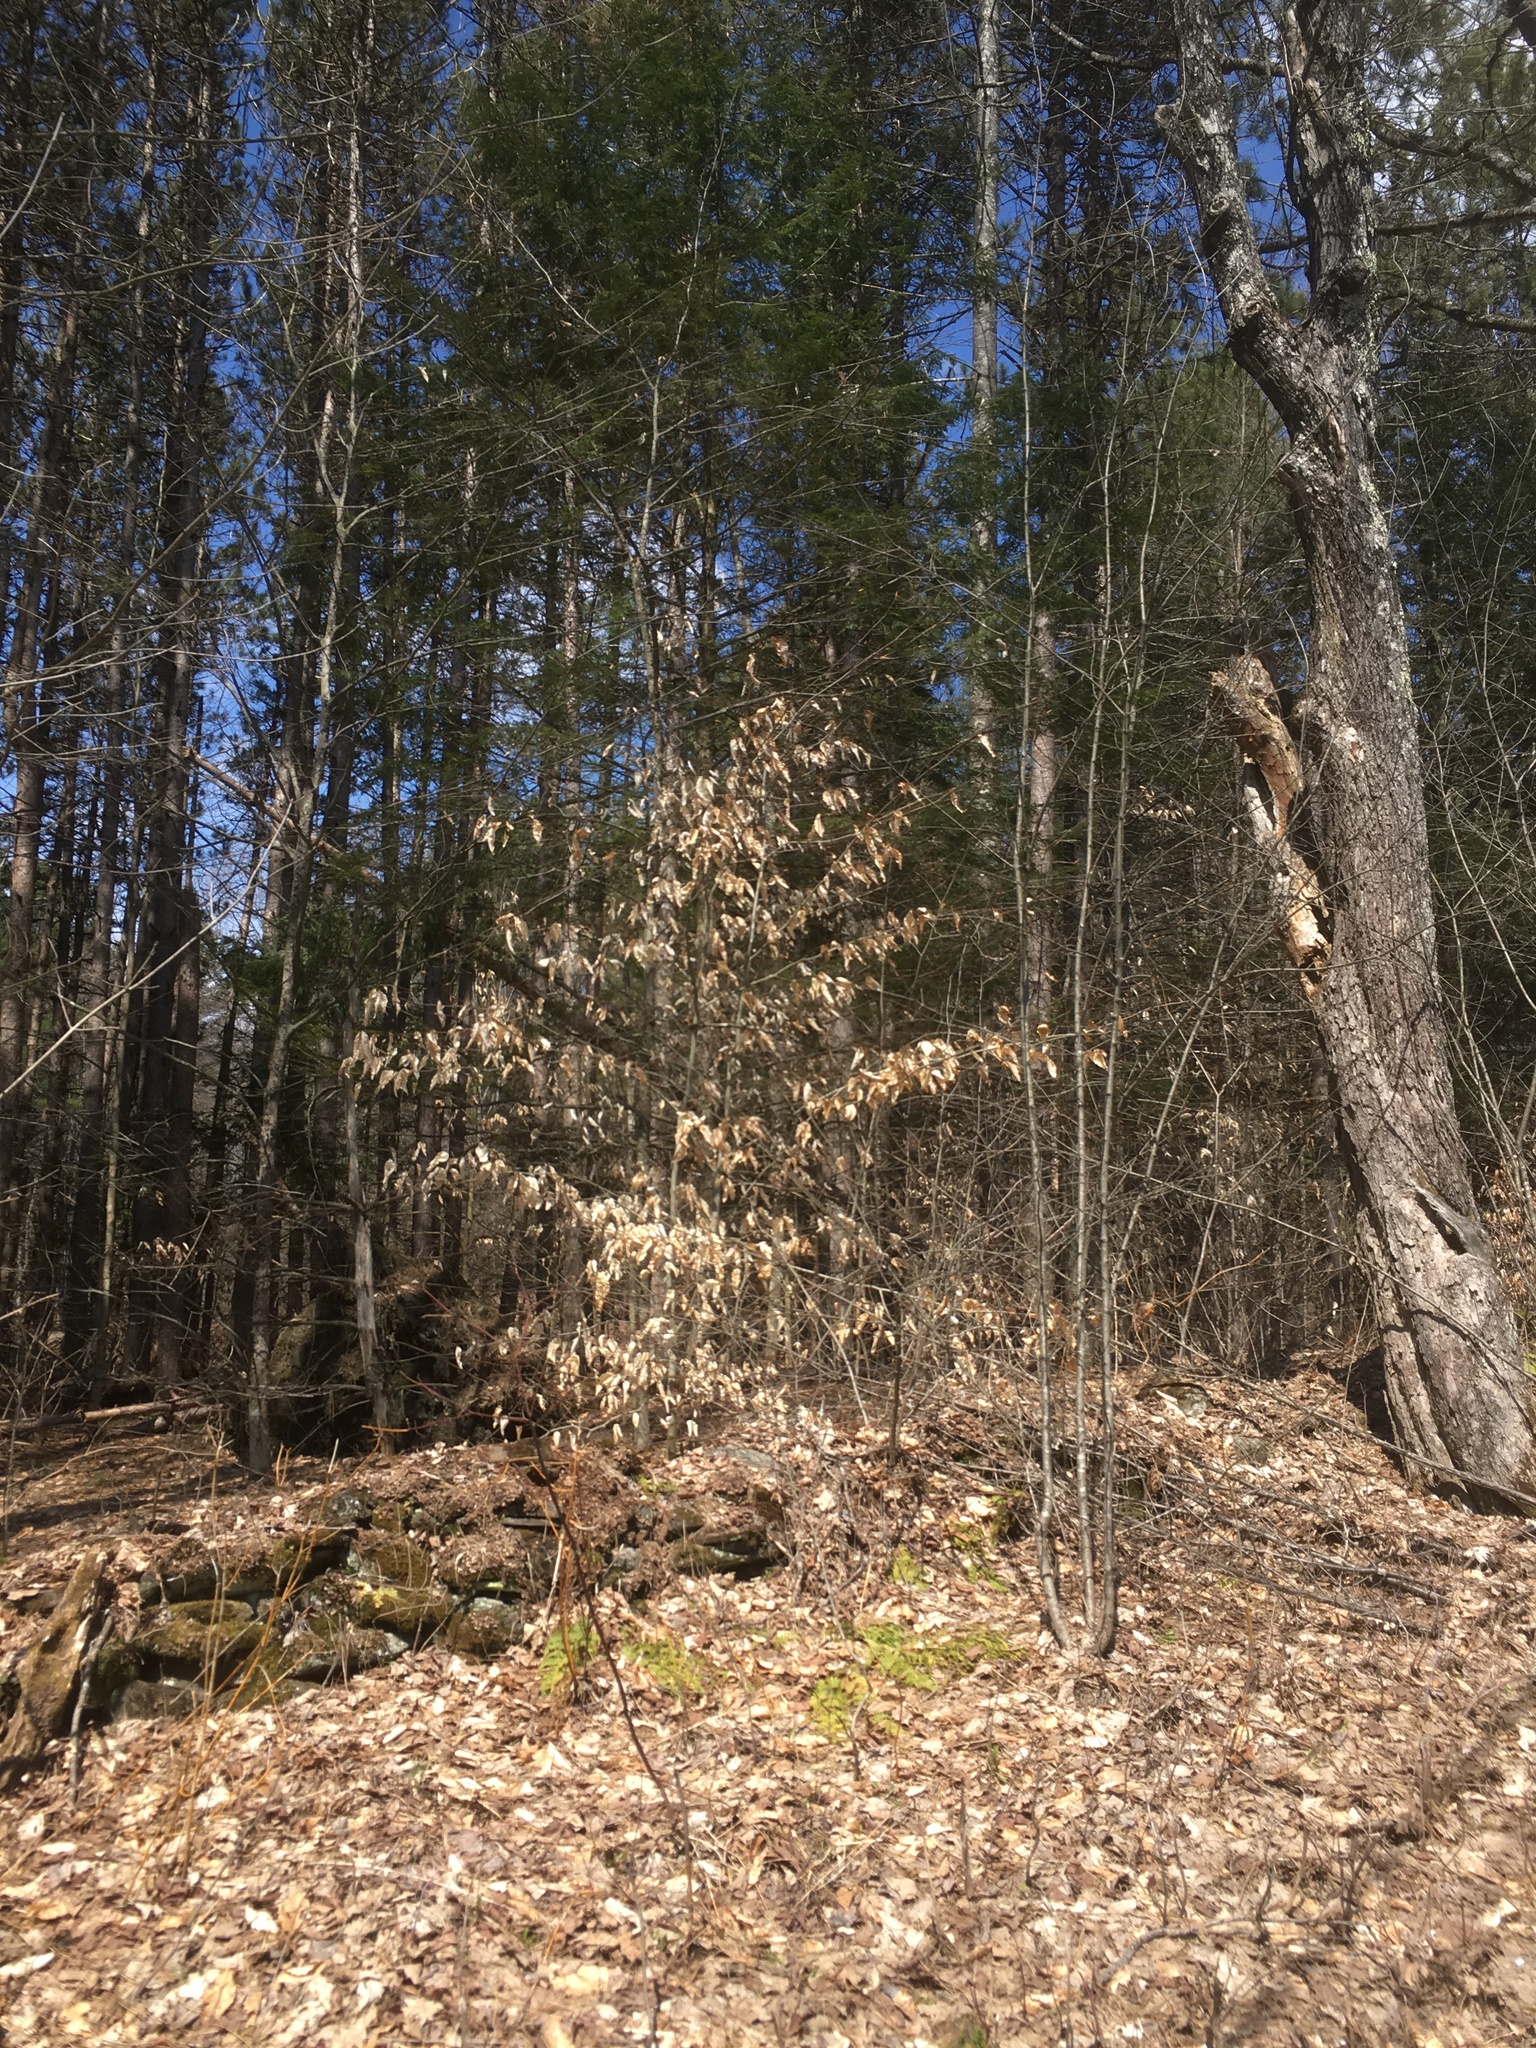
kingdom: Plantae
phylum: Tracheophyta
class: Magnoliopsida
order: Fagales
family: Fagaceae
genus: Fagus
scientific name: Fagus grandifolia
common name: American beech
